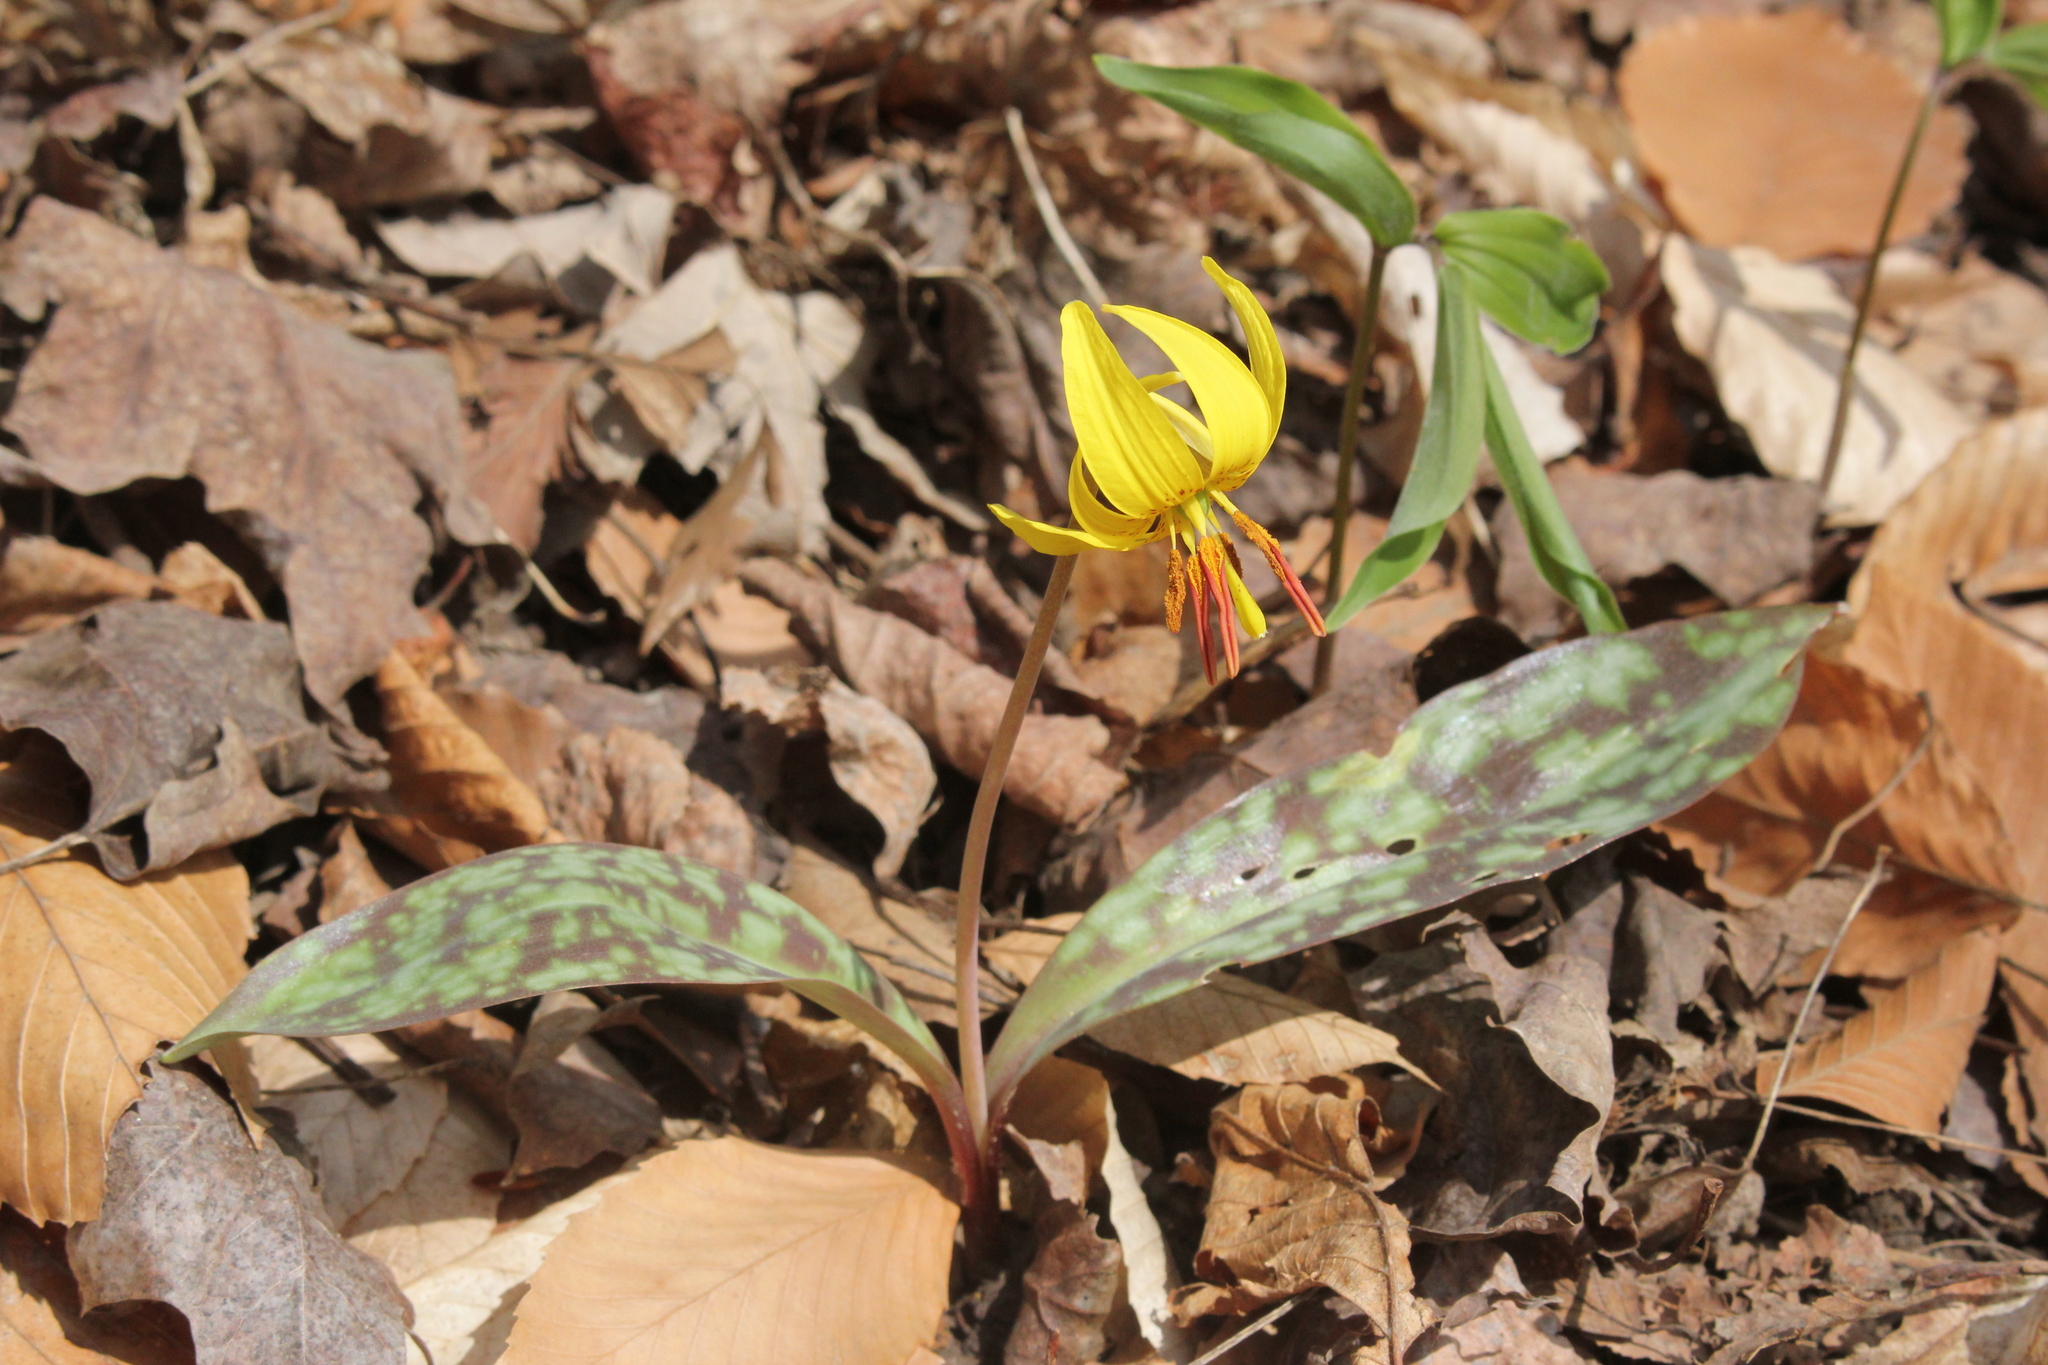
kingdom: Plantae
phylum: Tracheophyta
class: Liliopsida
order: Liliales
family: Liliaceae
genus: Erythronium
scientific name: Erythronium americanum
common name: Yellow adder's-tongue
